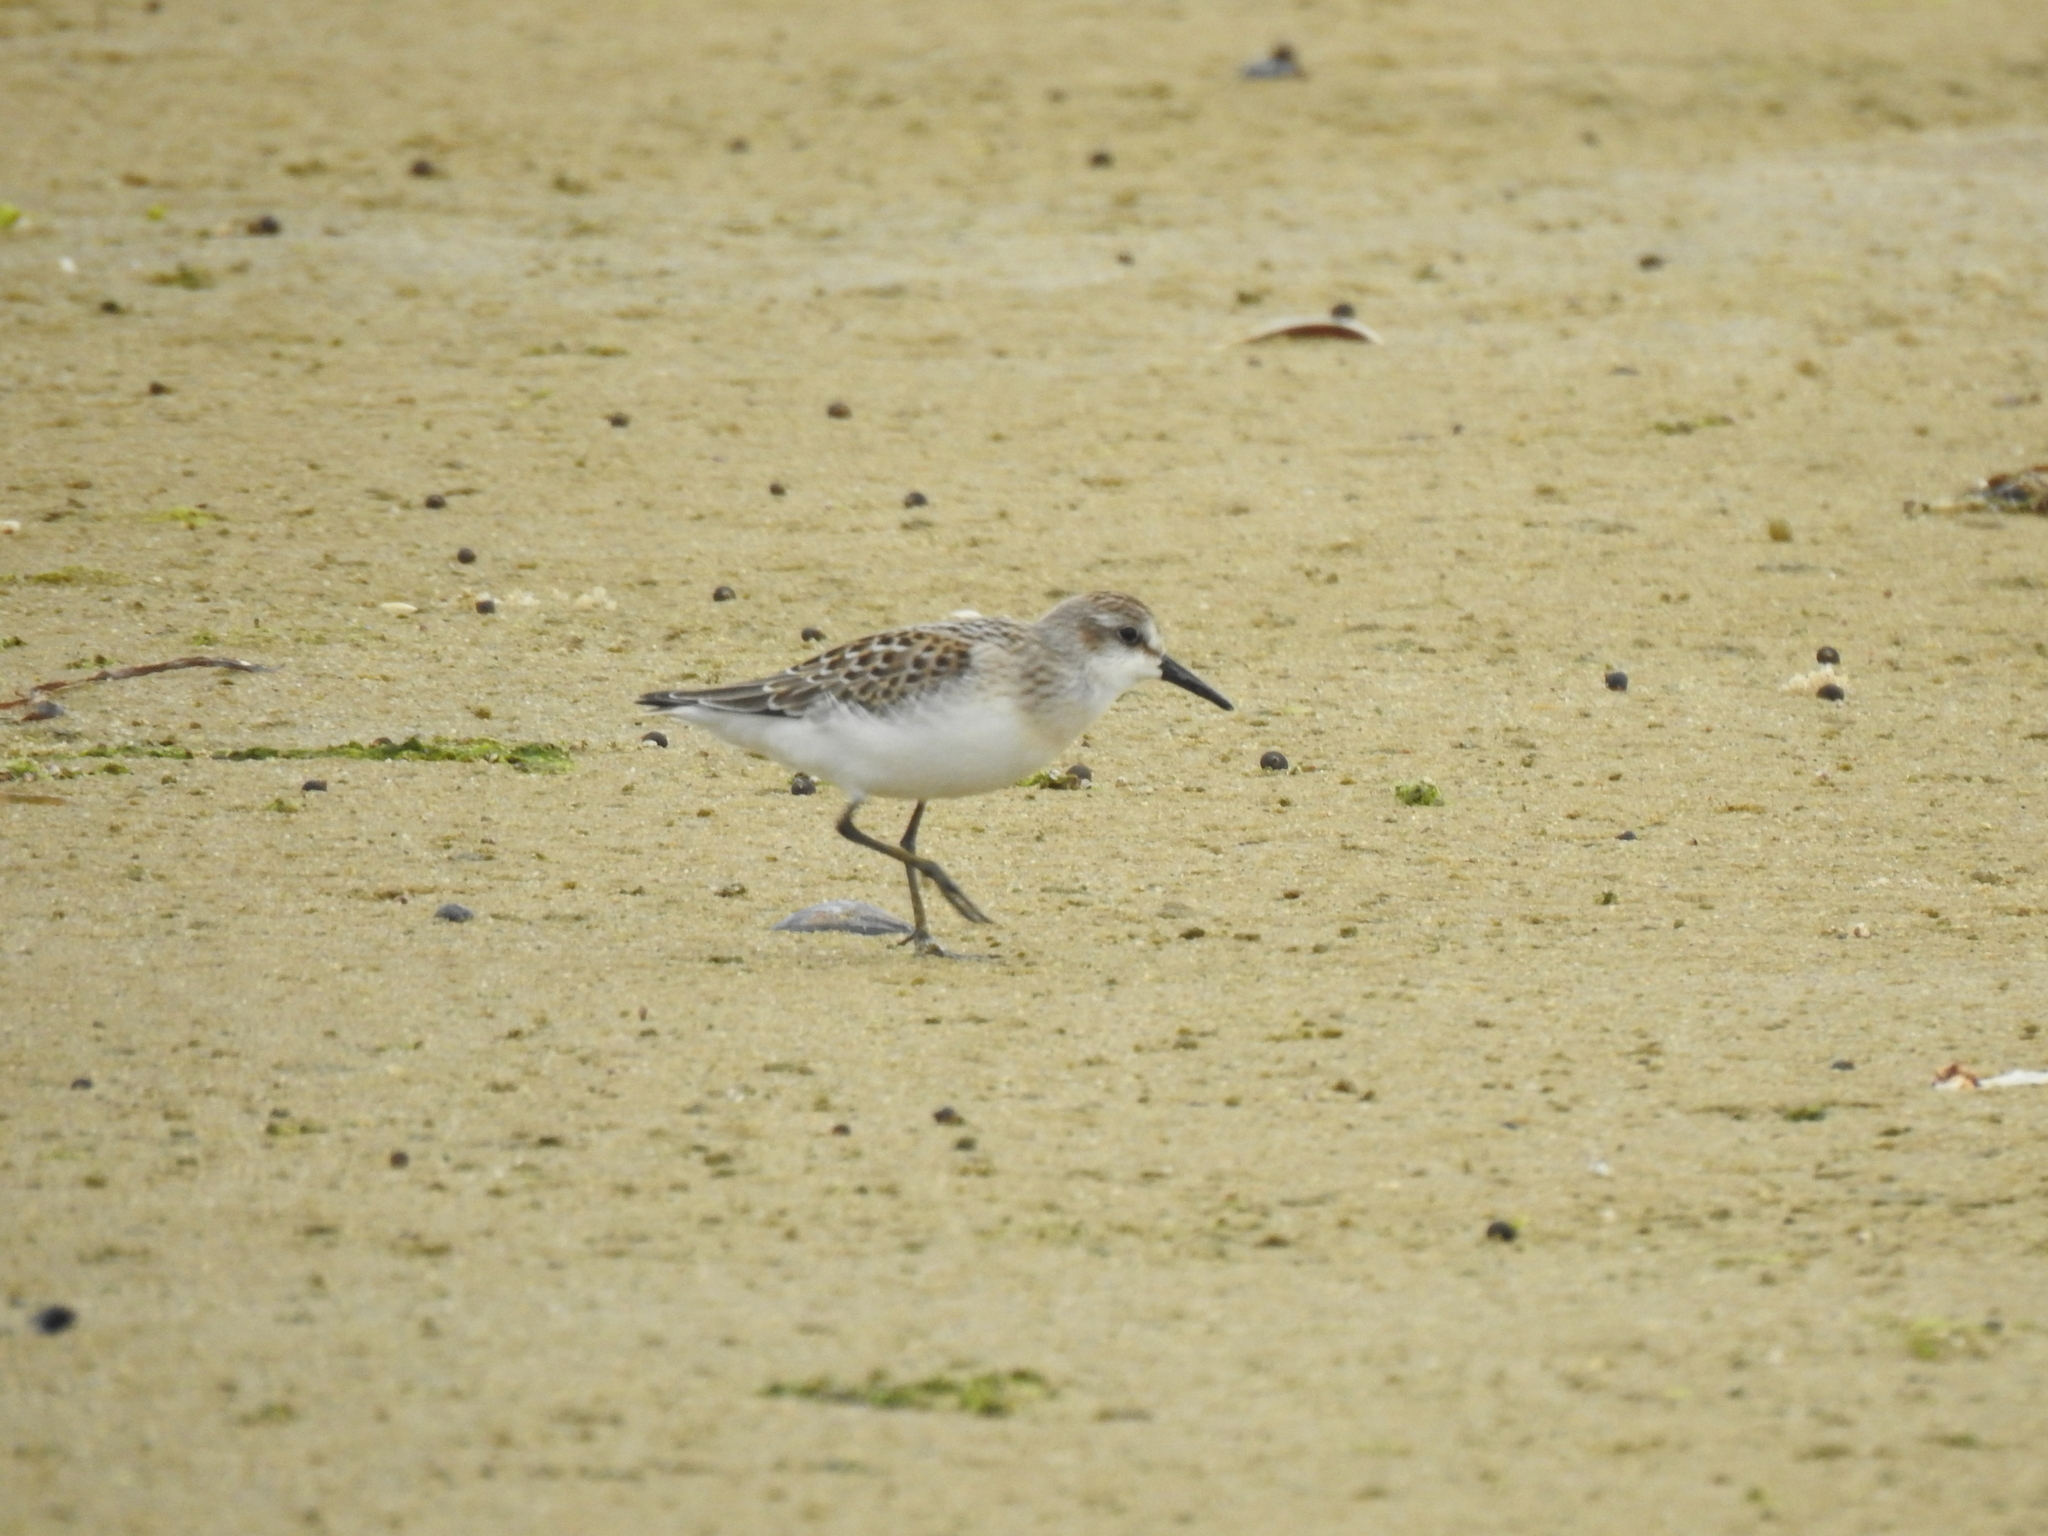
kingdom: Animalia
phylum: Chordata
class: Aves
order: Charadriiformes
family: Scolopacidae
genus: Calidris
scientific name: Calidris alba
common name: Sanderling
